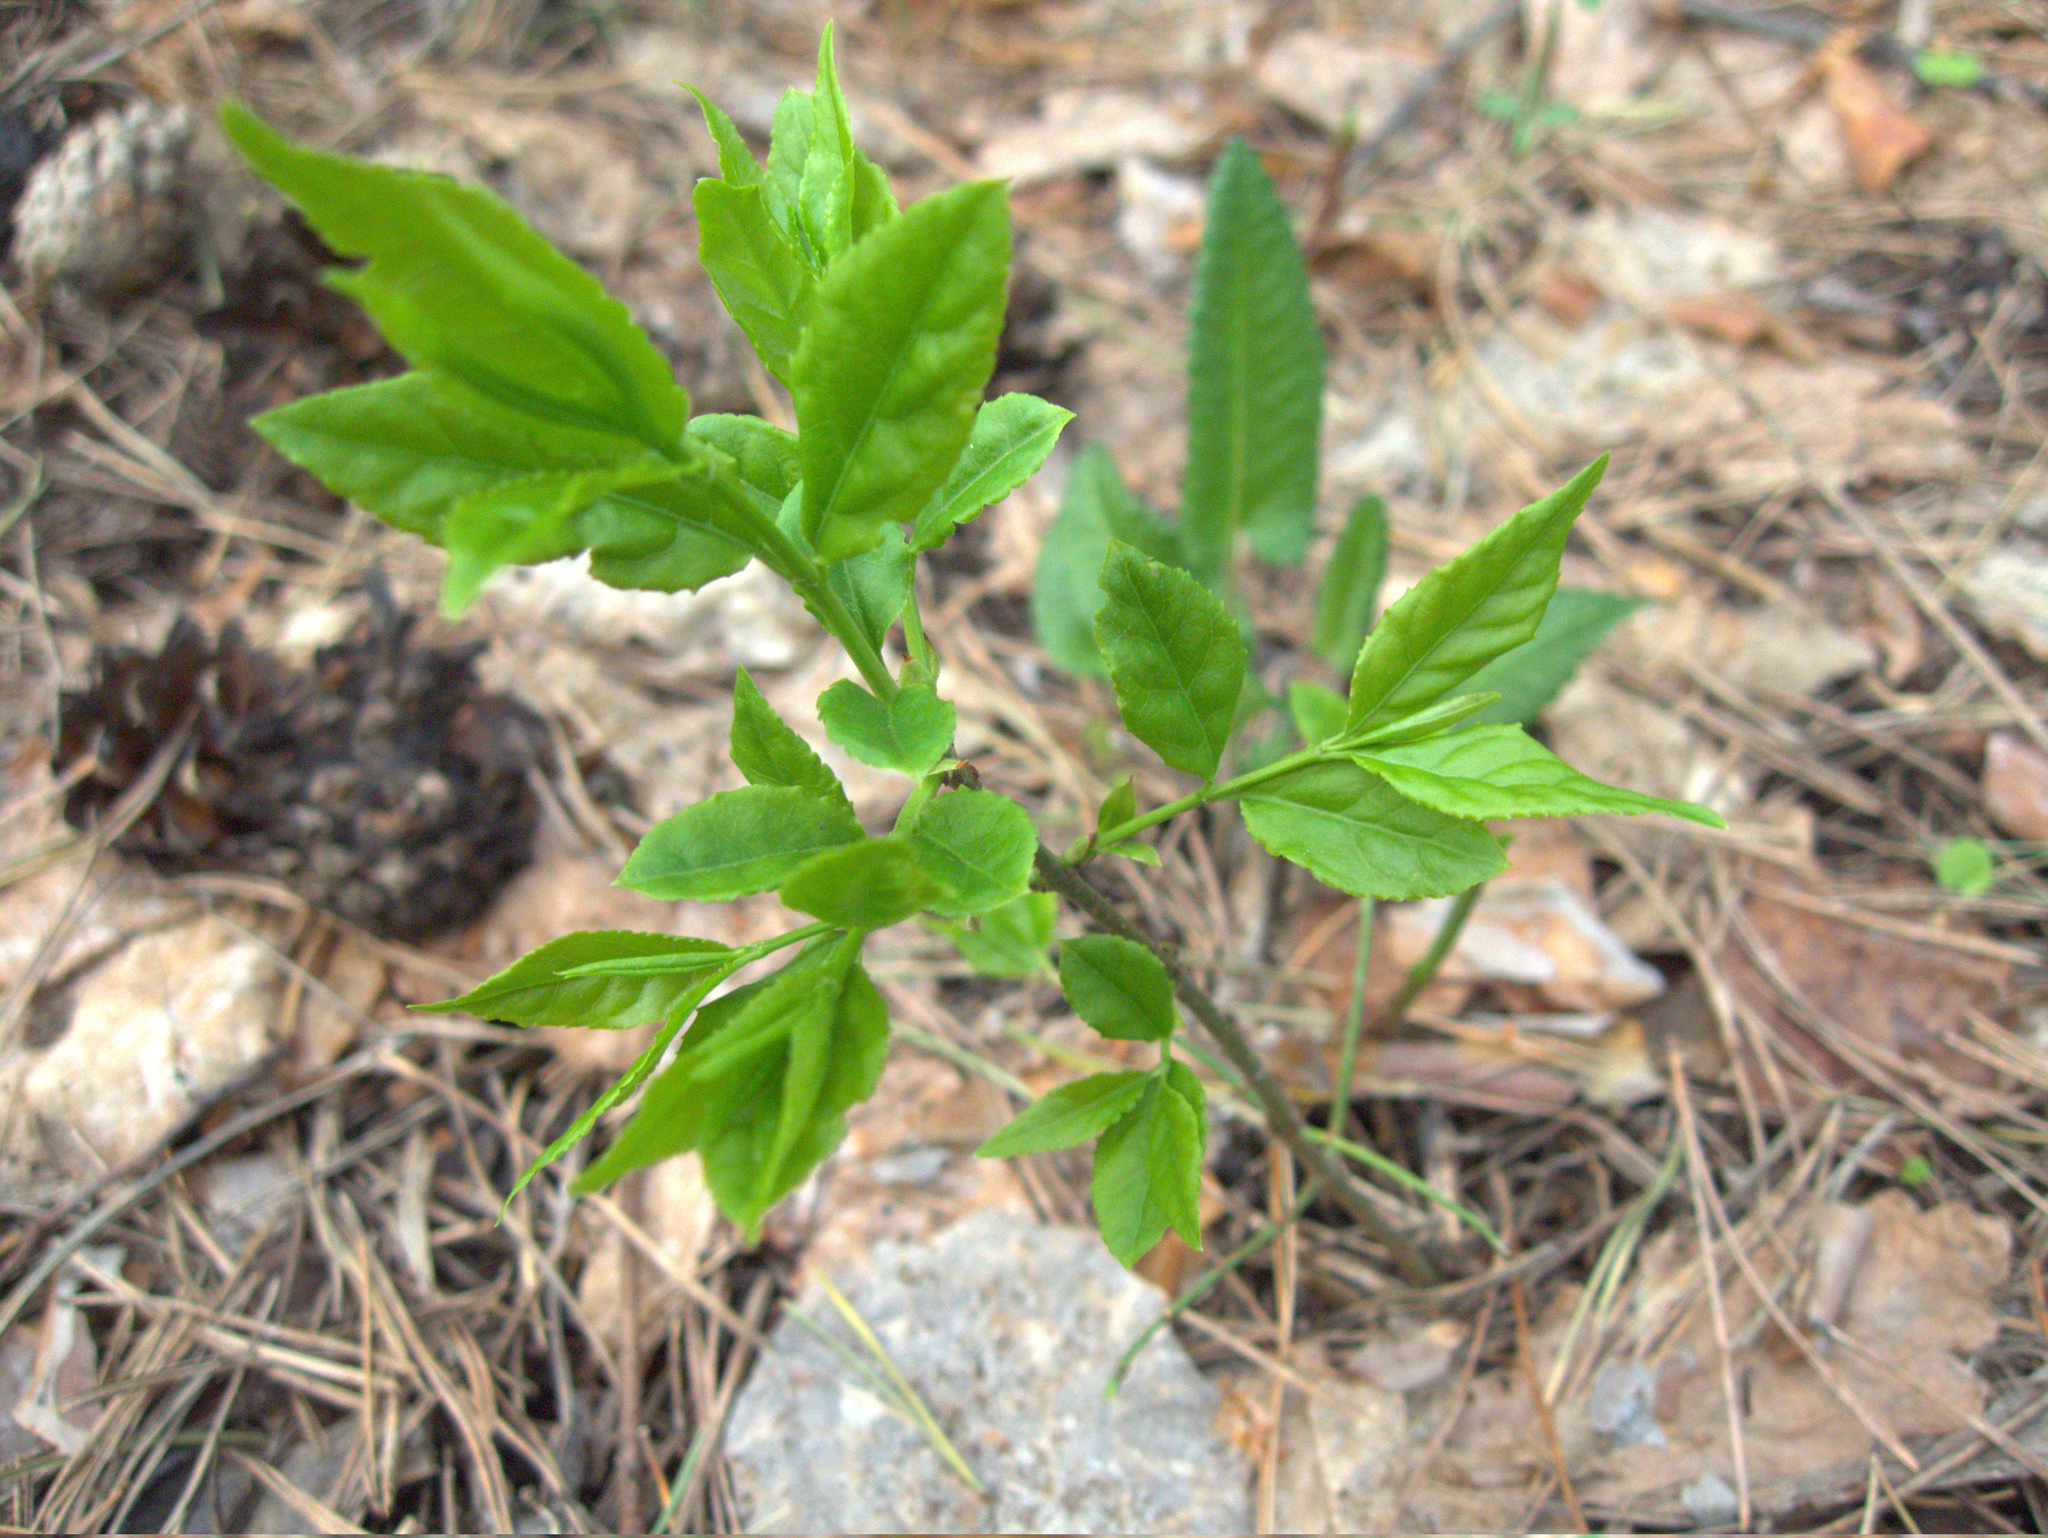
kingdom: Plantae
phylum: Tracheophyta
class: Magnoliopsida
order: Celastrales
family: Celastraceae
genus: Euonymus
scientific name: Euonymus verrucosus
